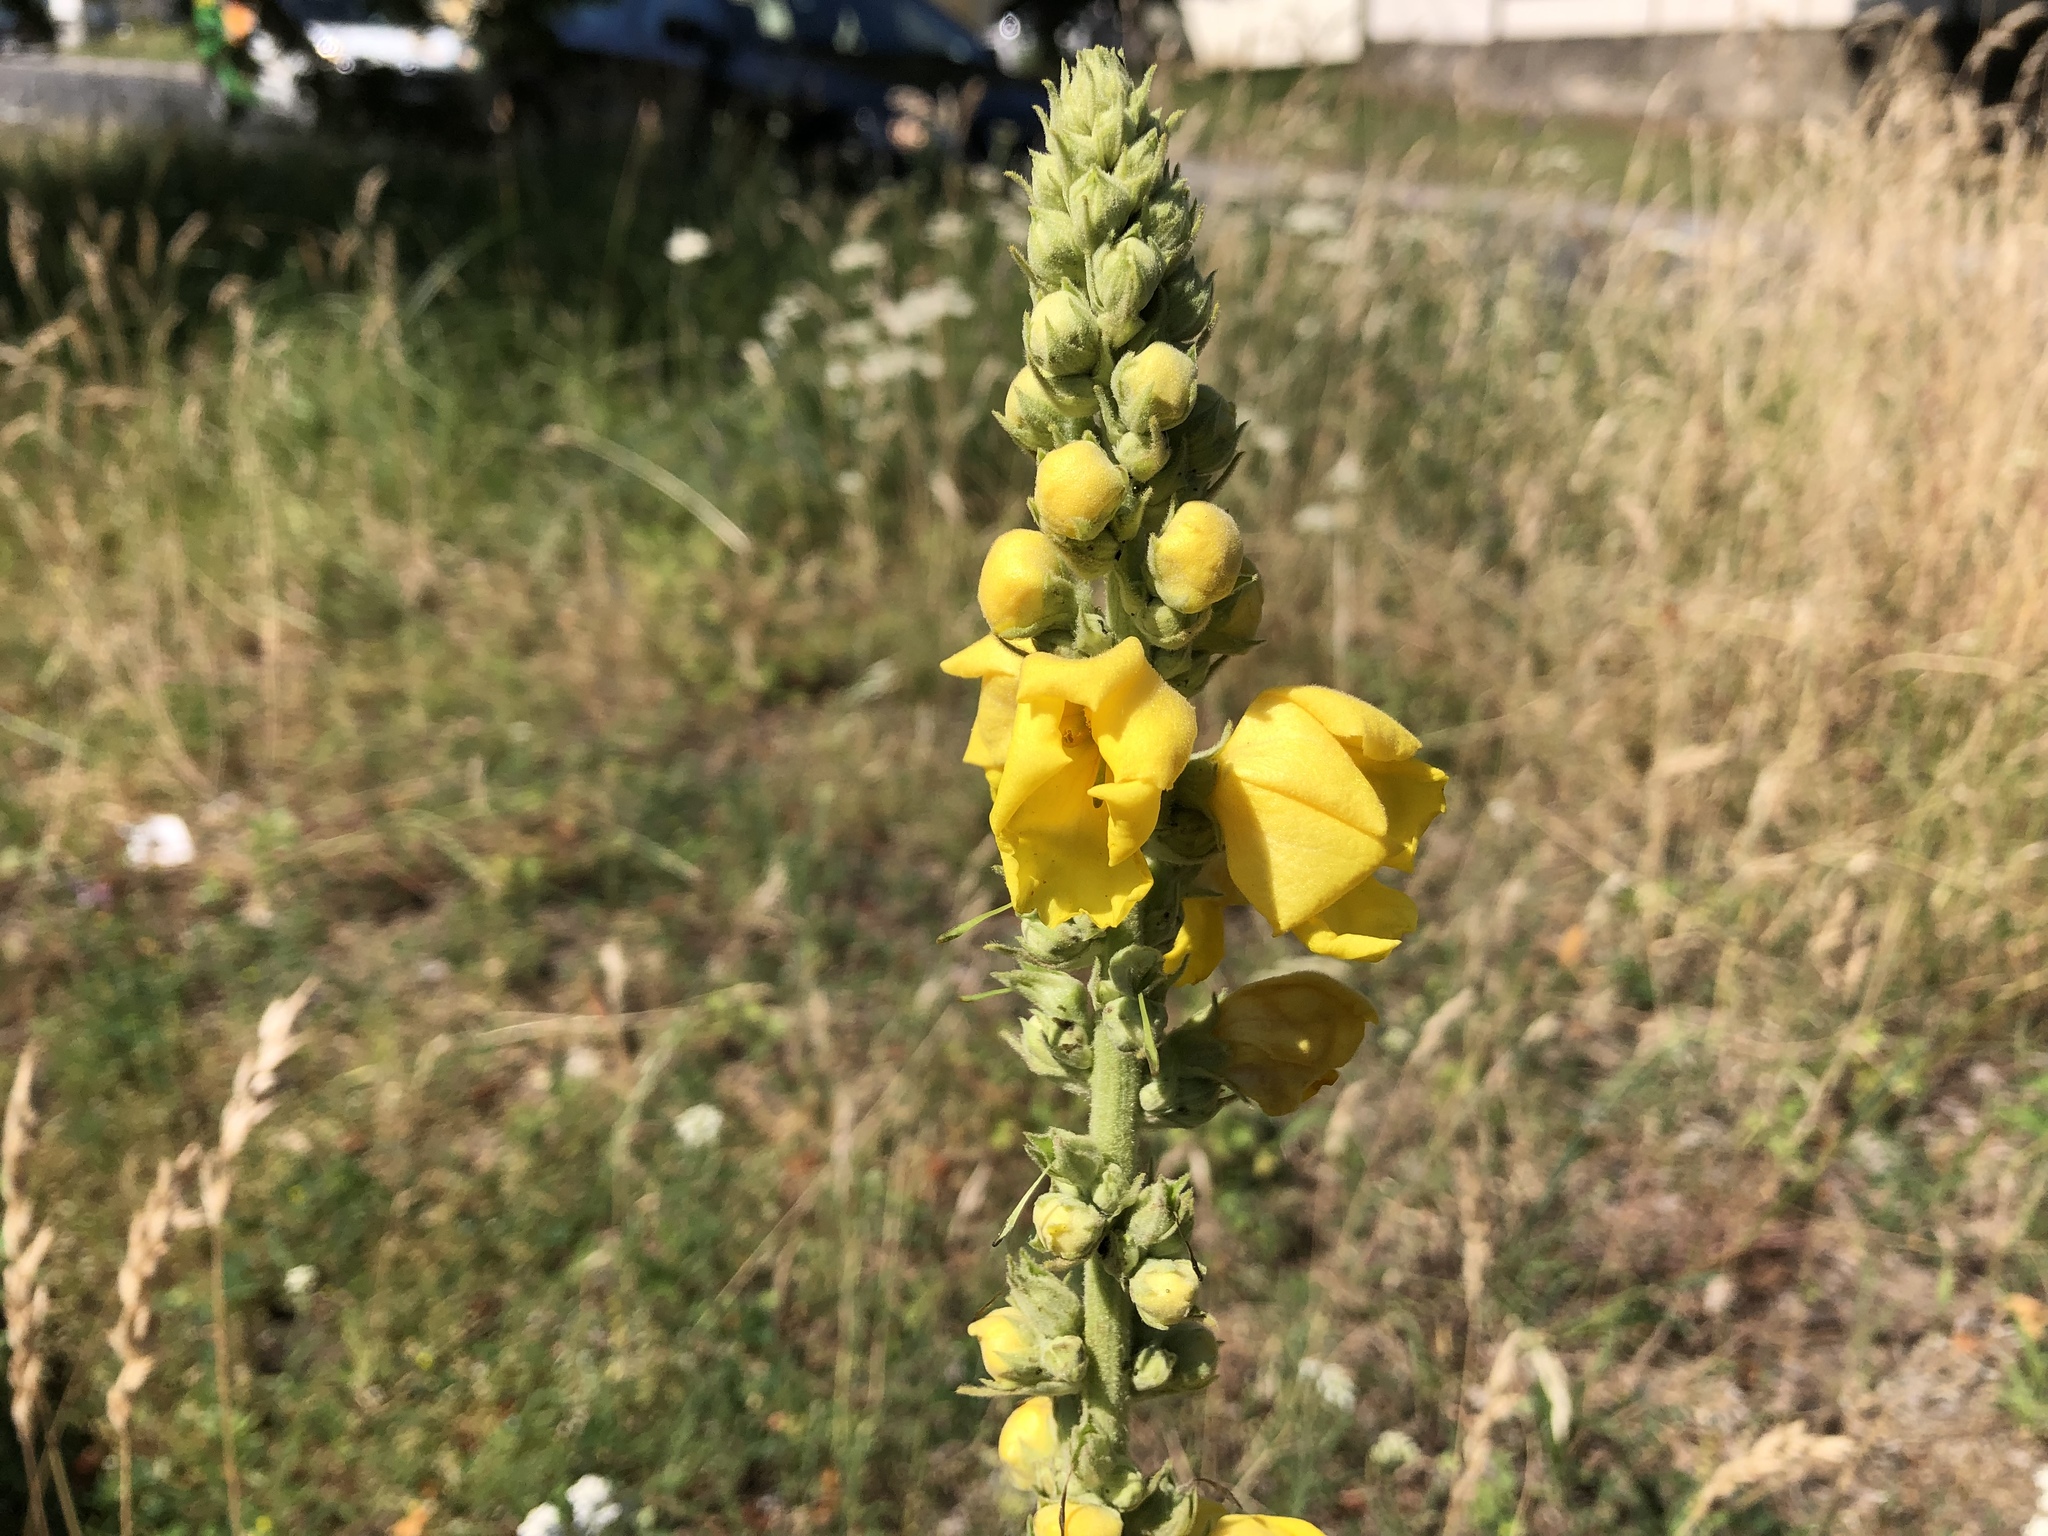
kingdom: Plantae
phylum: Tracheophyta
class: Magnoliopsida
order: Lamiales
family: Scrophulariaceae
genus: Verbascum
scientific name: Verbascum phlomoides
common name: Orange mullein
